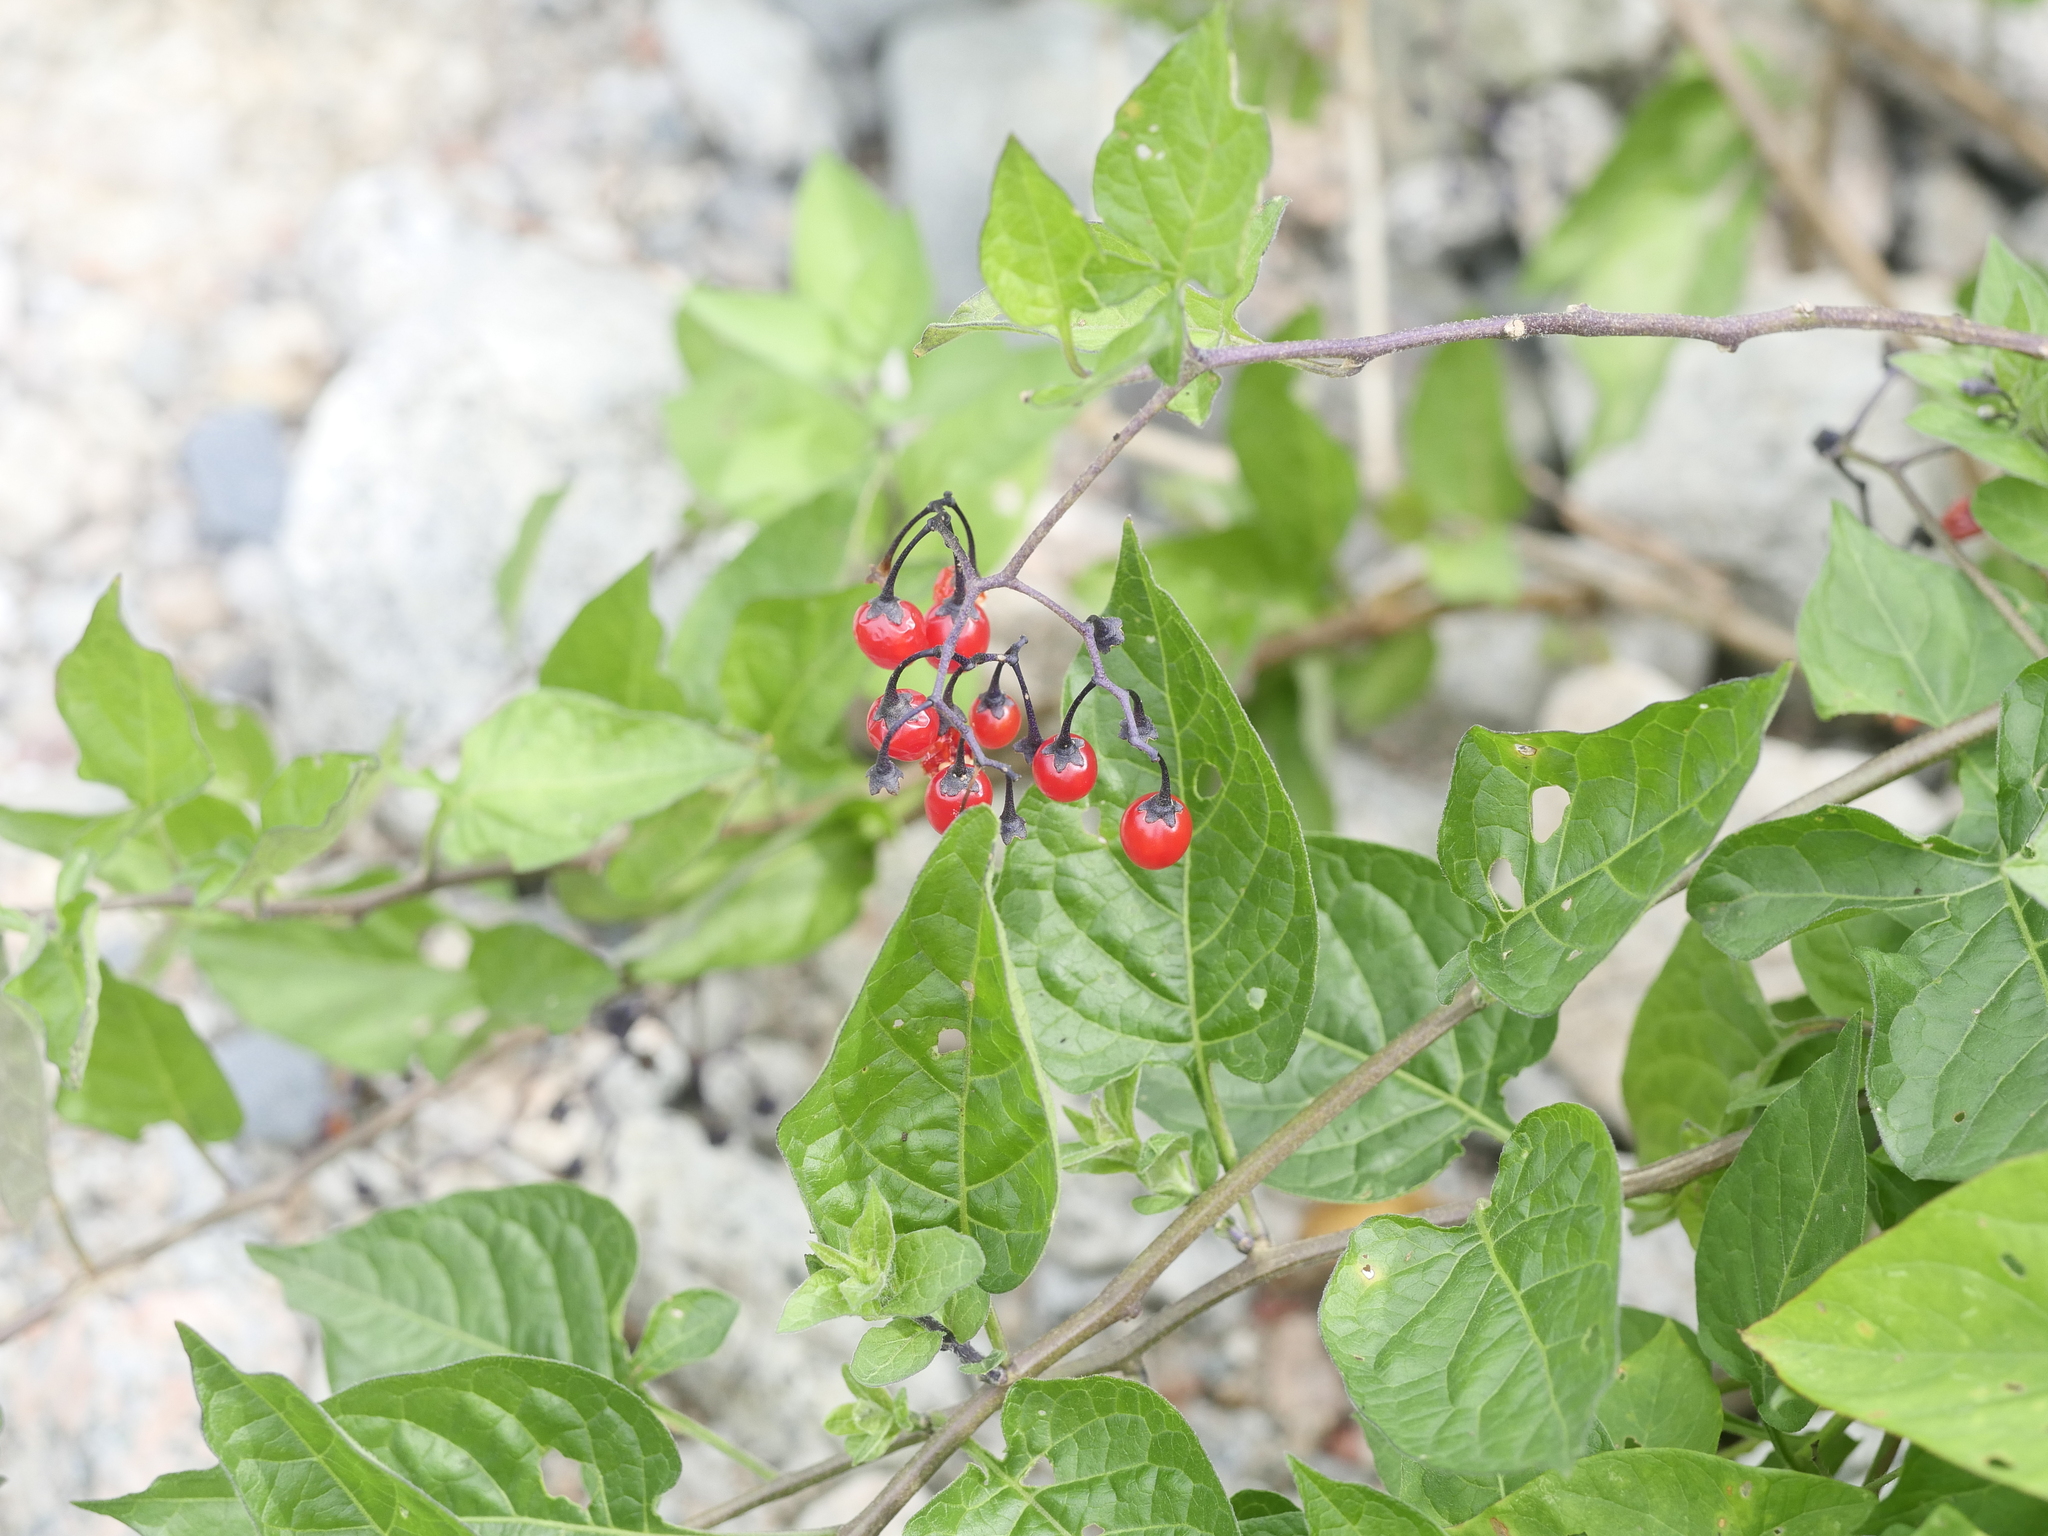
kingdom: Plantae
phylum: Tracheophyta
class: Magnoliopsida
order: Solanales
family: Solanaceae
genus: Solanum
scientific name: Solanum dulcamara
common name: Climbing nightshade
